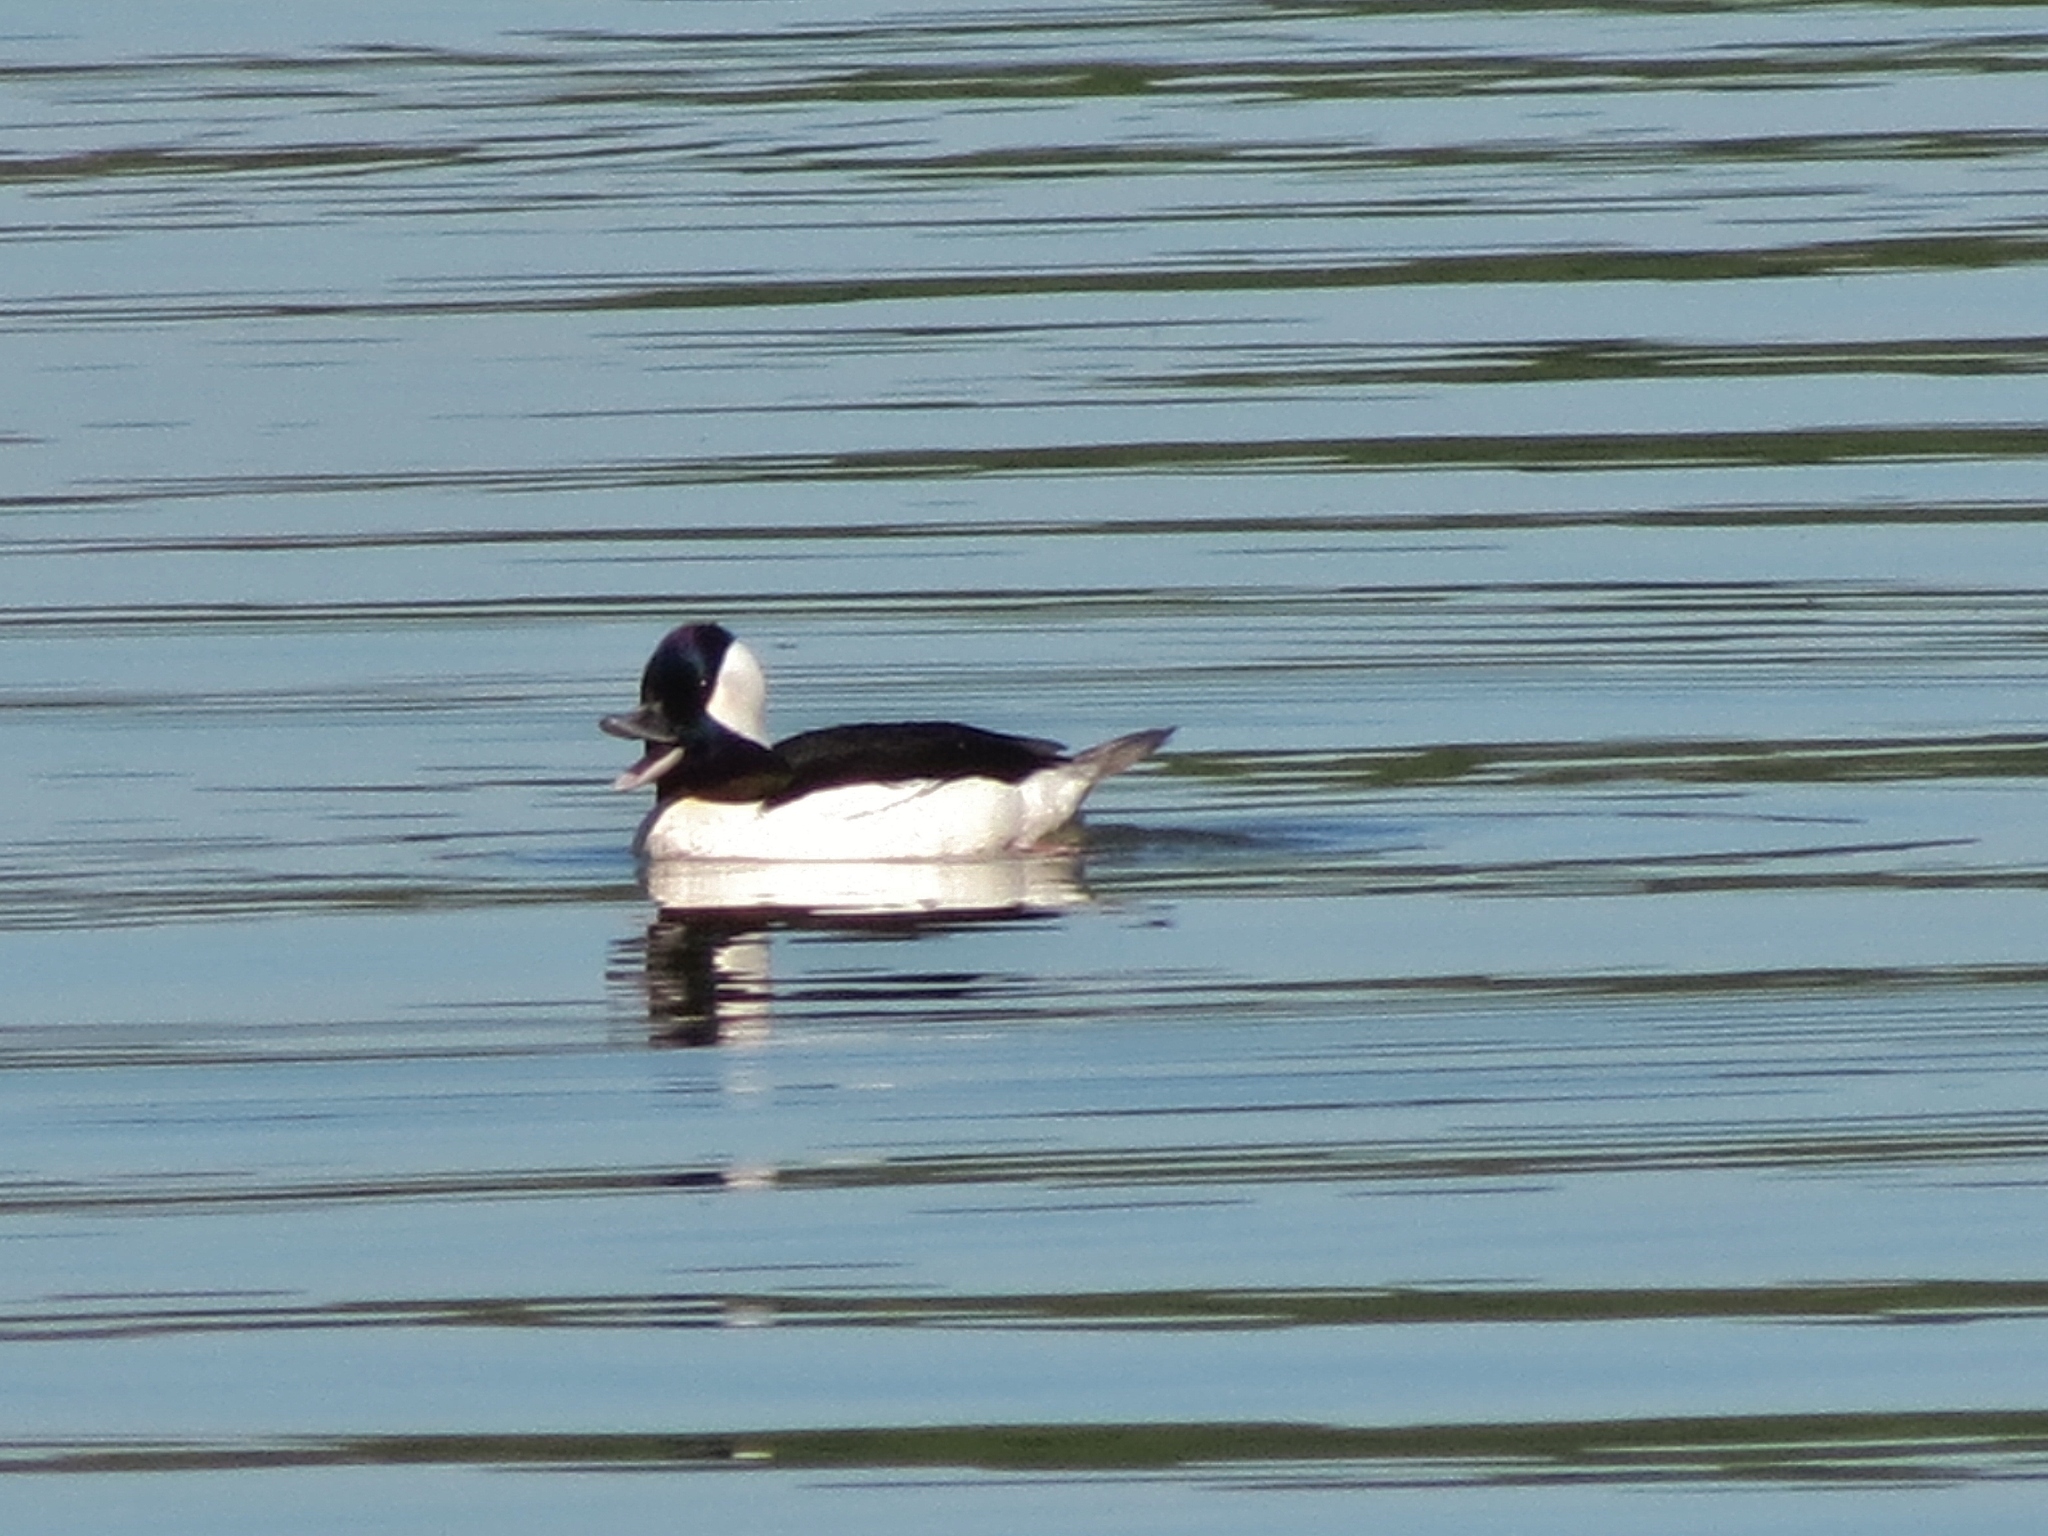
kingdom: Animalia
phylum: Chordata
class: Aves
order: Anseriformes
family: Anatidae
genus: Bucephala
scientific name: Bucephala albeola
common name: Bufflehead
